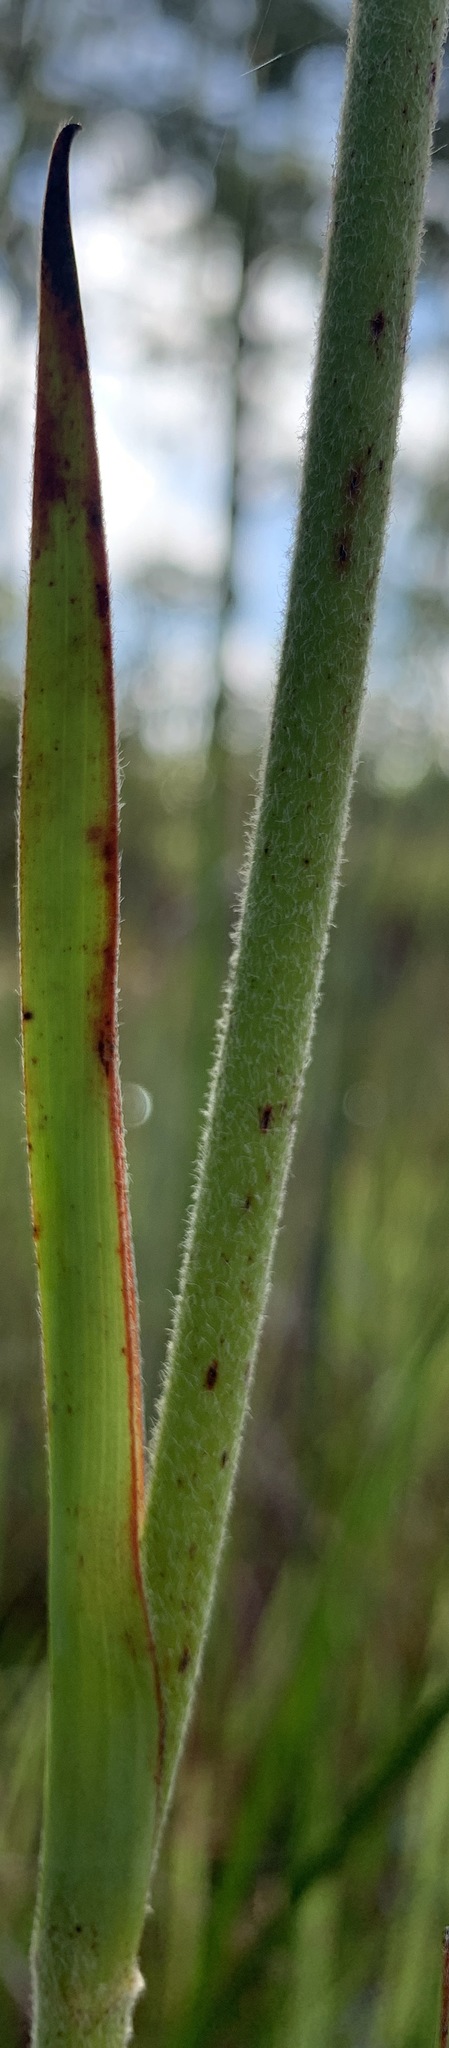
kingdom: Plantae
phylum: Tracheophyta
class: Liliopsida
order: Commelinales
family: Haemodoraceae
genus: Lachnanthes
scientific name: Lachnanthes caroliana
